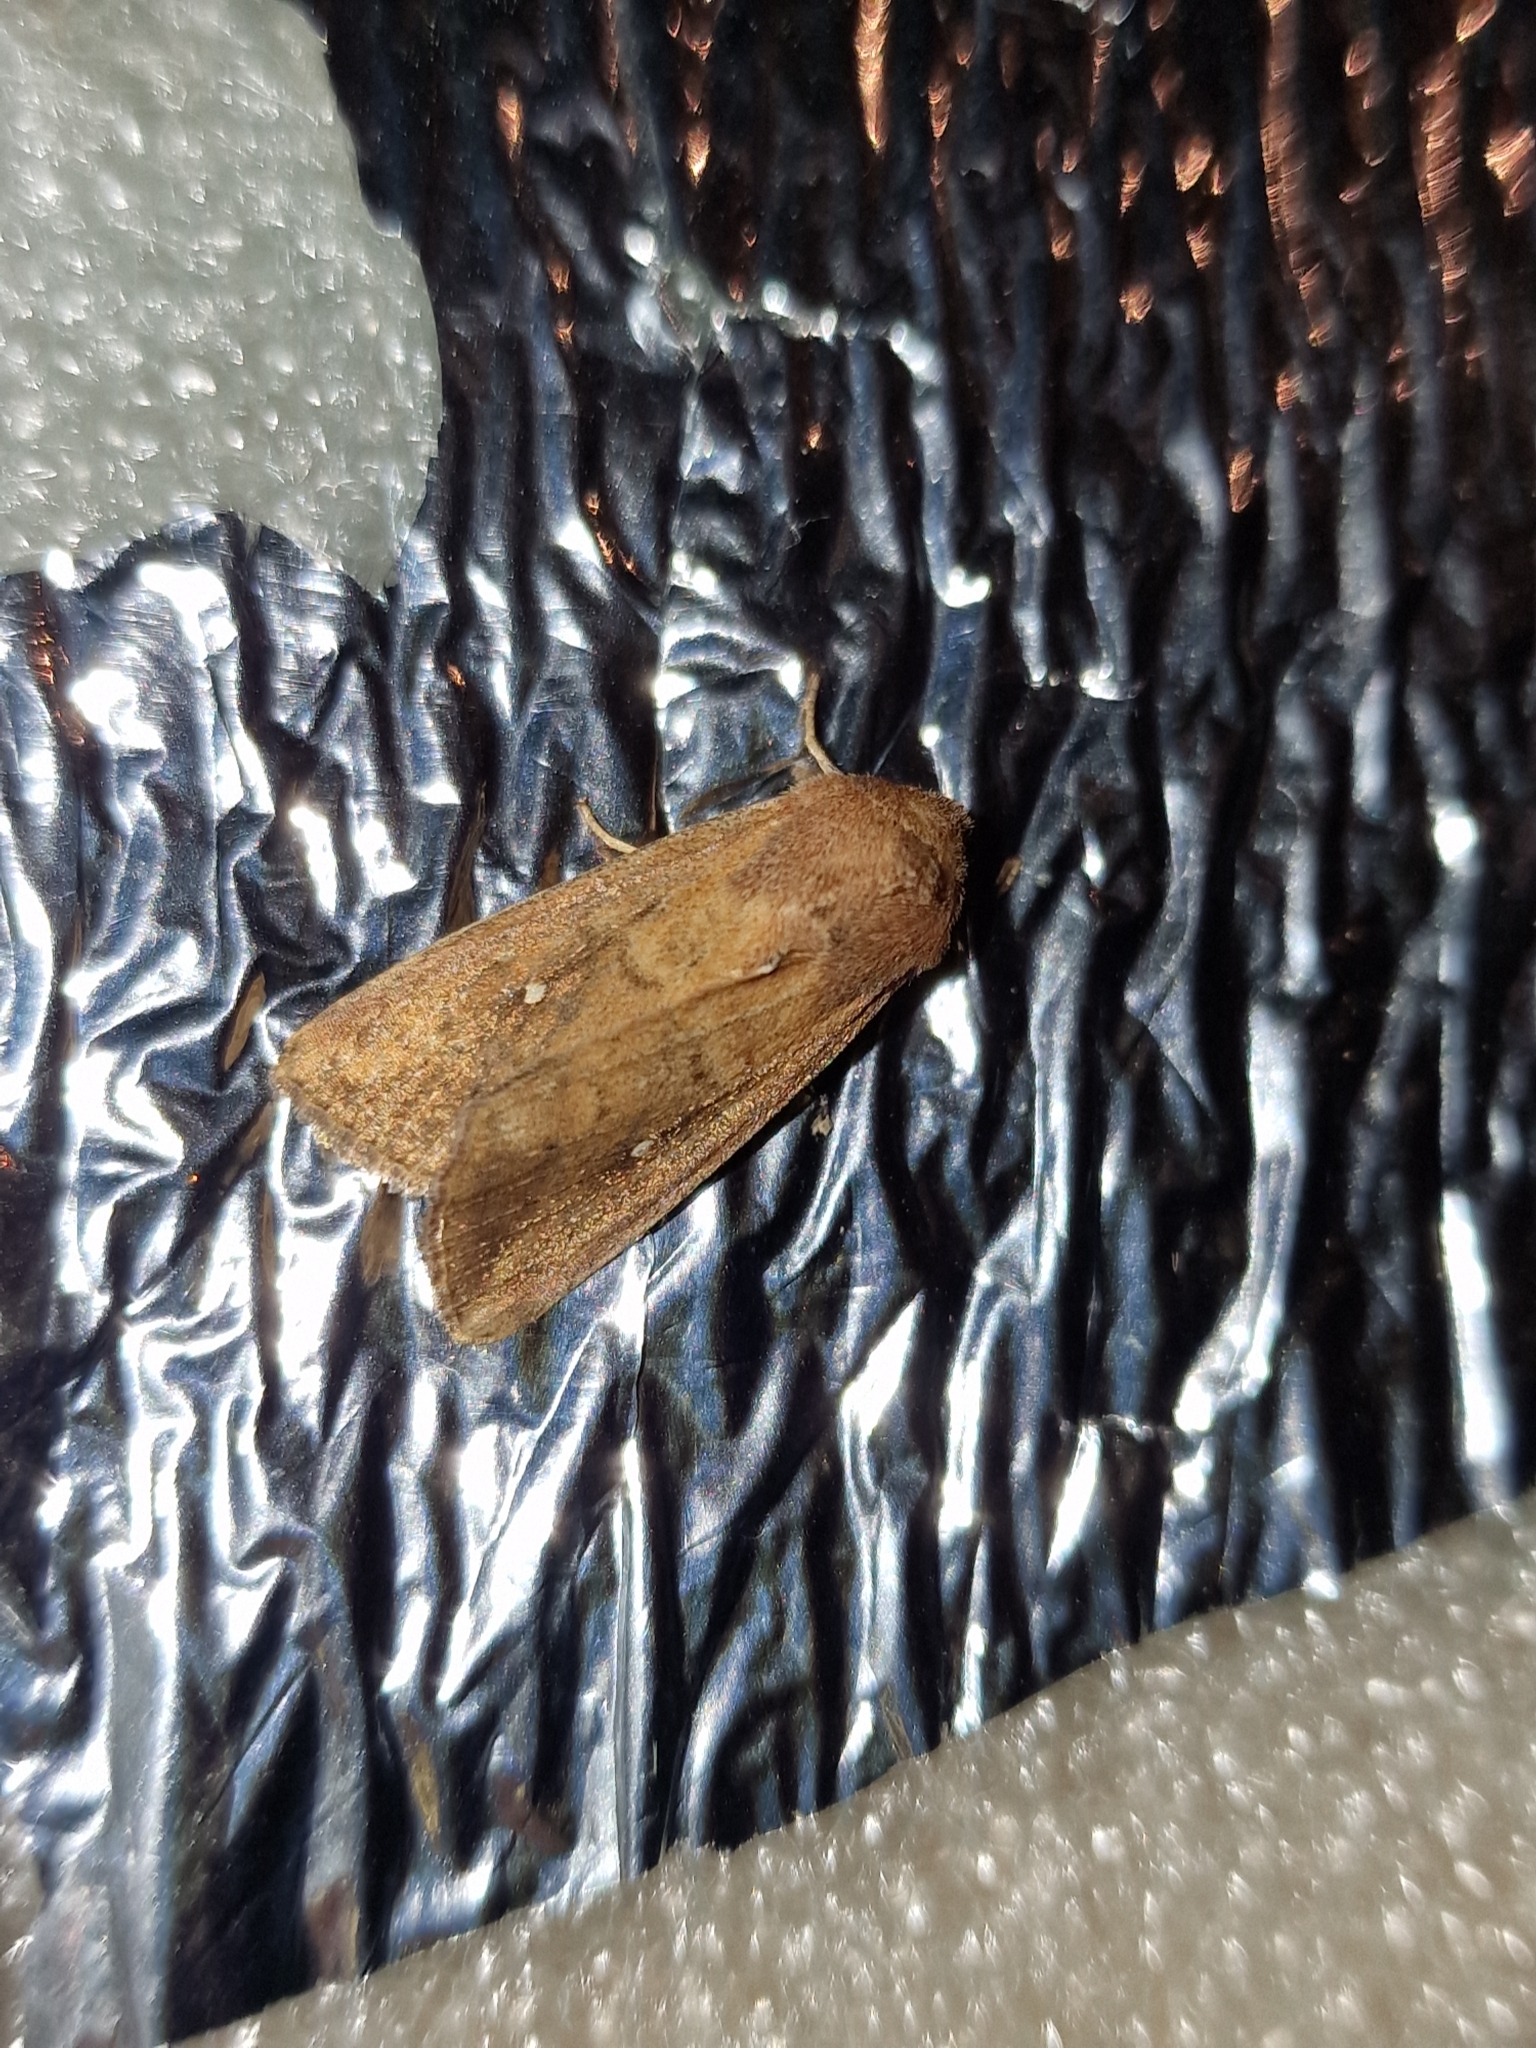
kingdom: Animalia
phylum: Arthropoda
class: Insecta
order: Lepidoptera
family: Noctuidae
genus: Mythimna
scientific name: Mythimna albipuncta
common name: White-point
